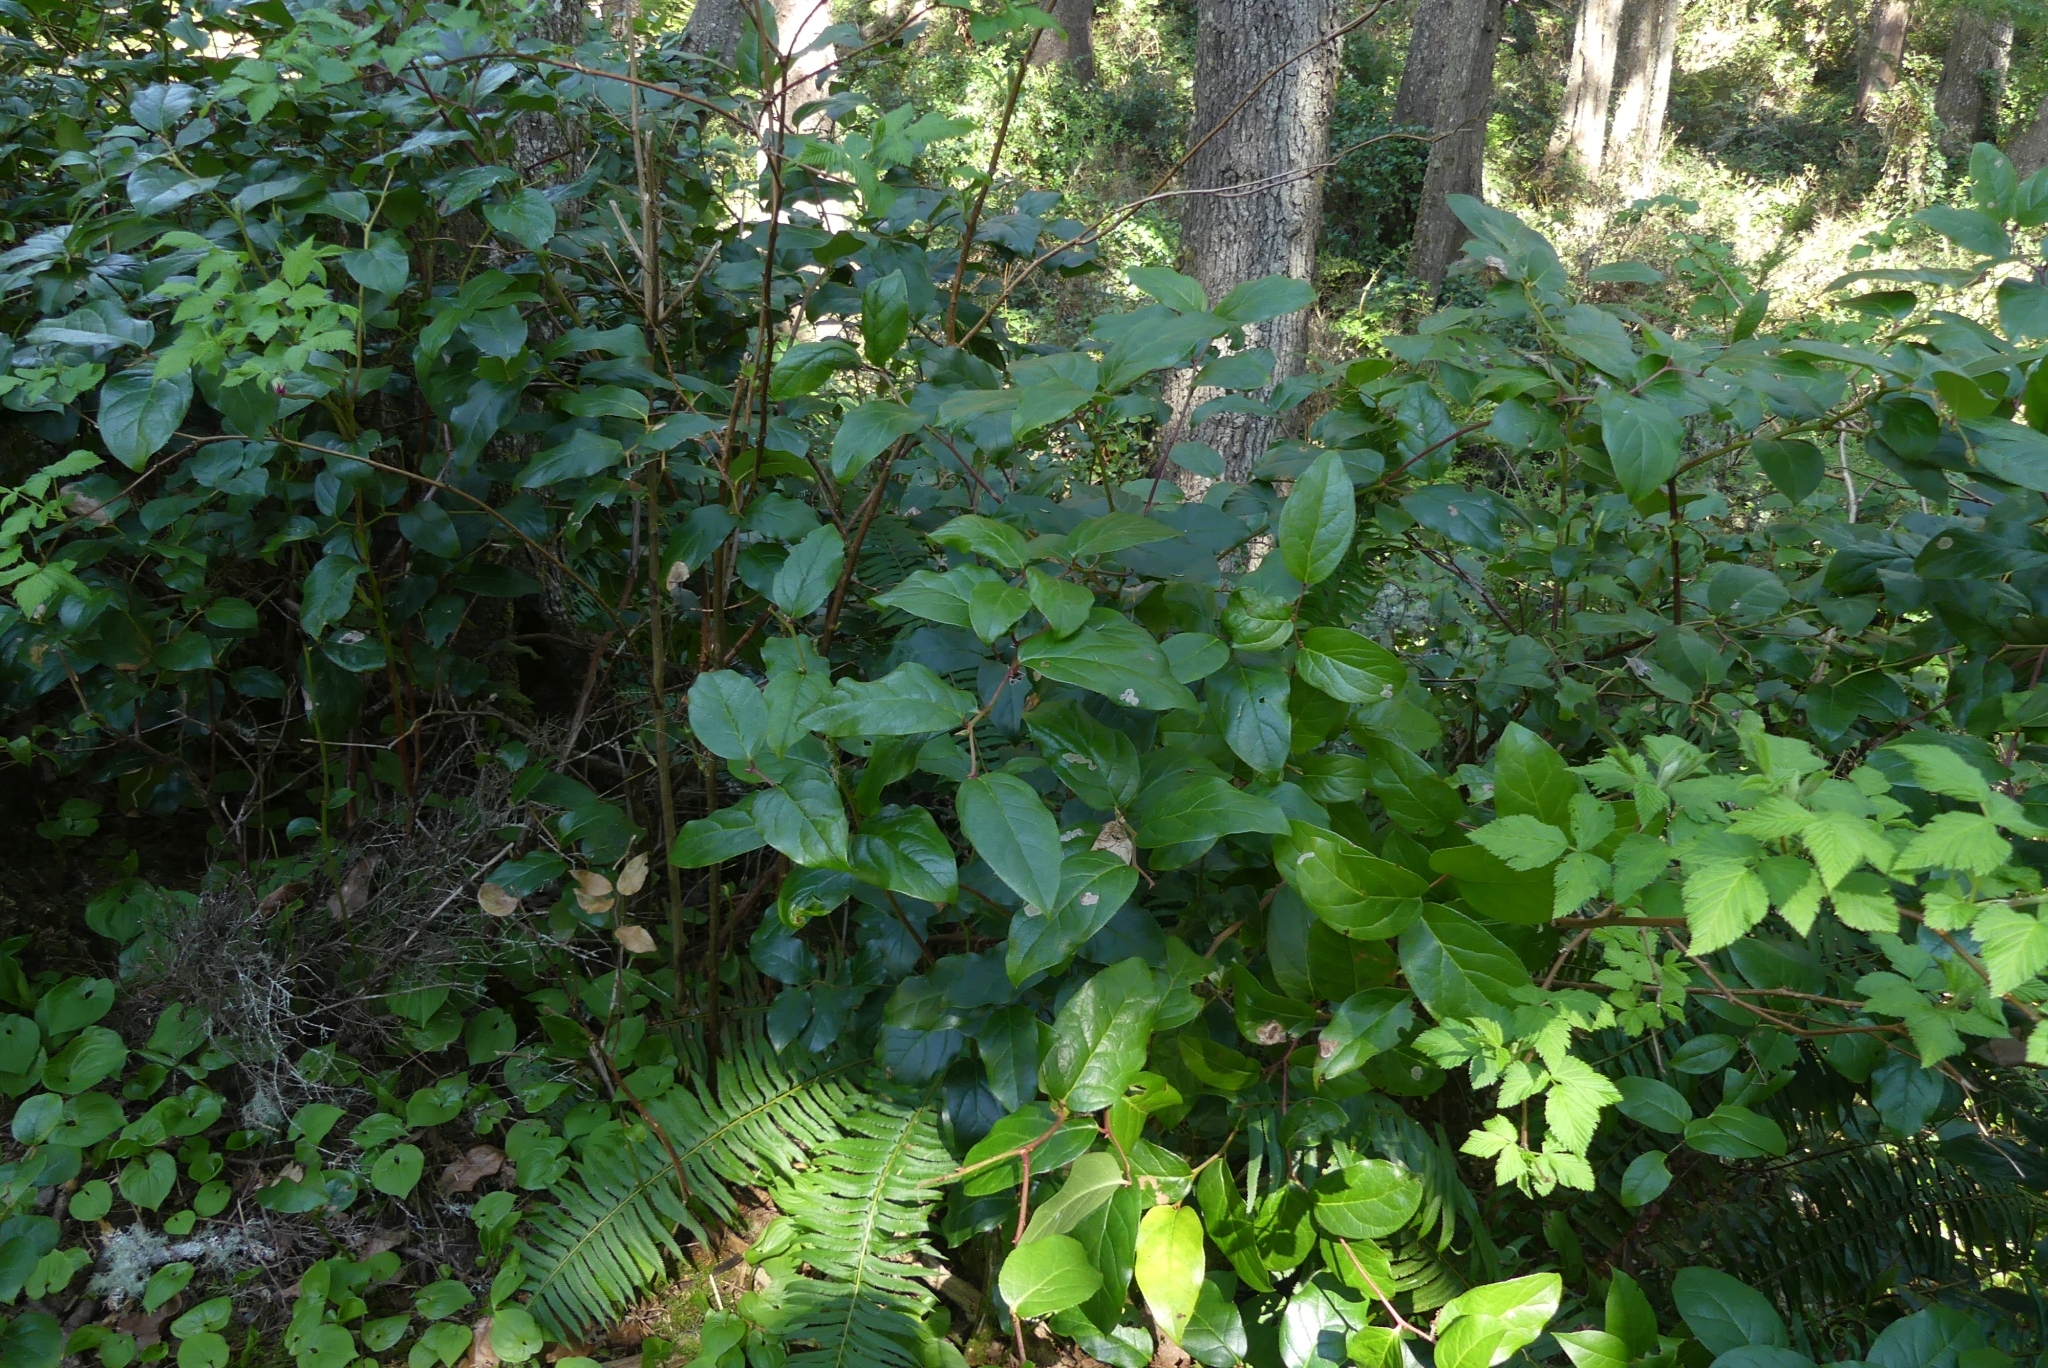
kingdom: Plantae
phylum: Tracheophyta
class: Magnoliopsida
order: Ericales
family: Ericaceae
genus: Gaultheria
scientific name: Gaultheria shallon
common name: Shallon
